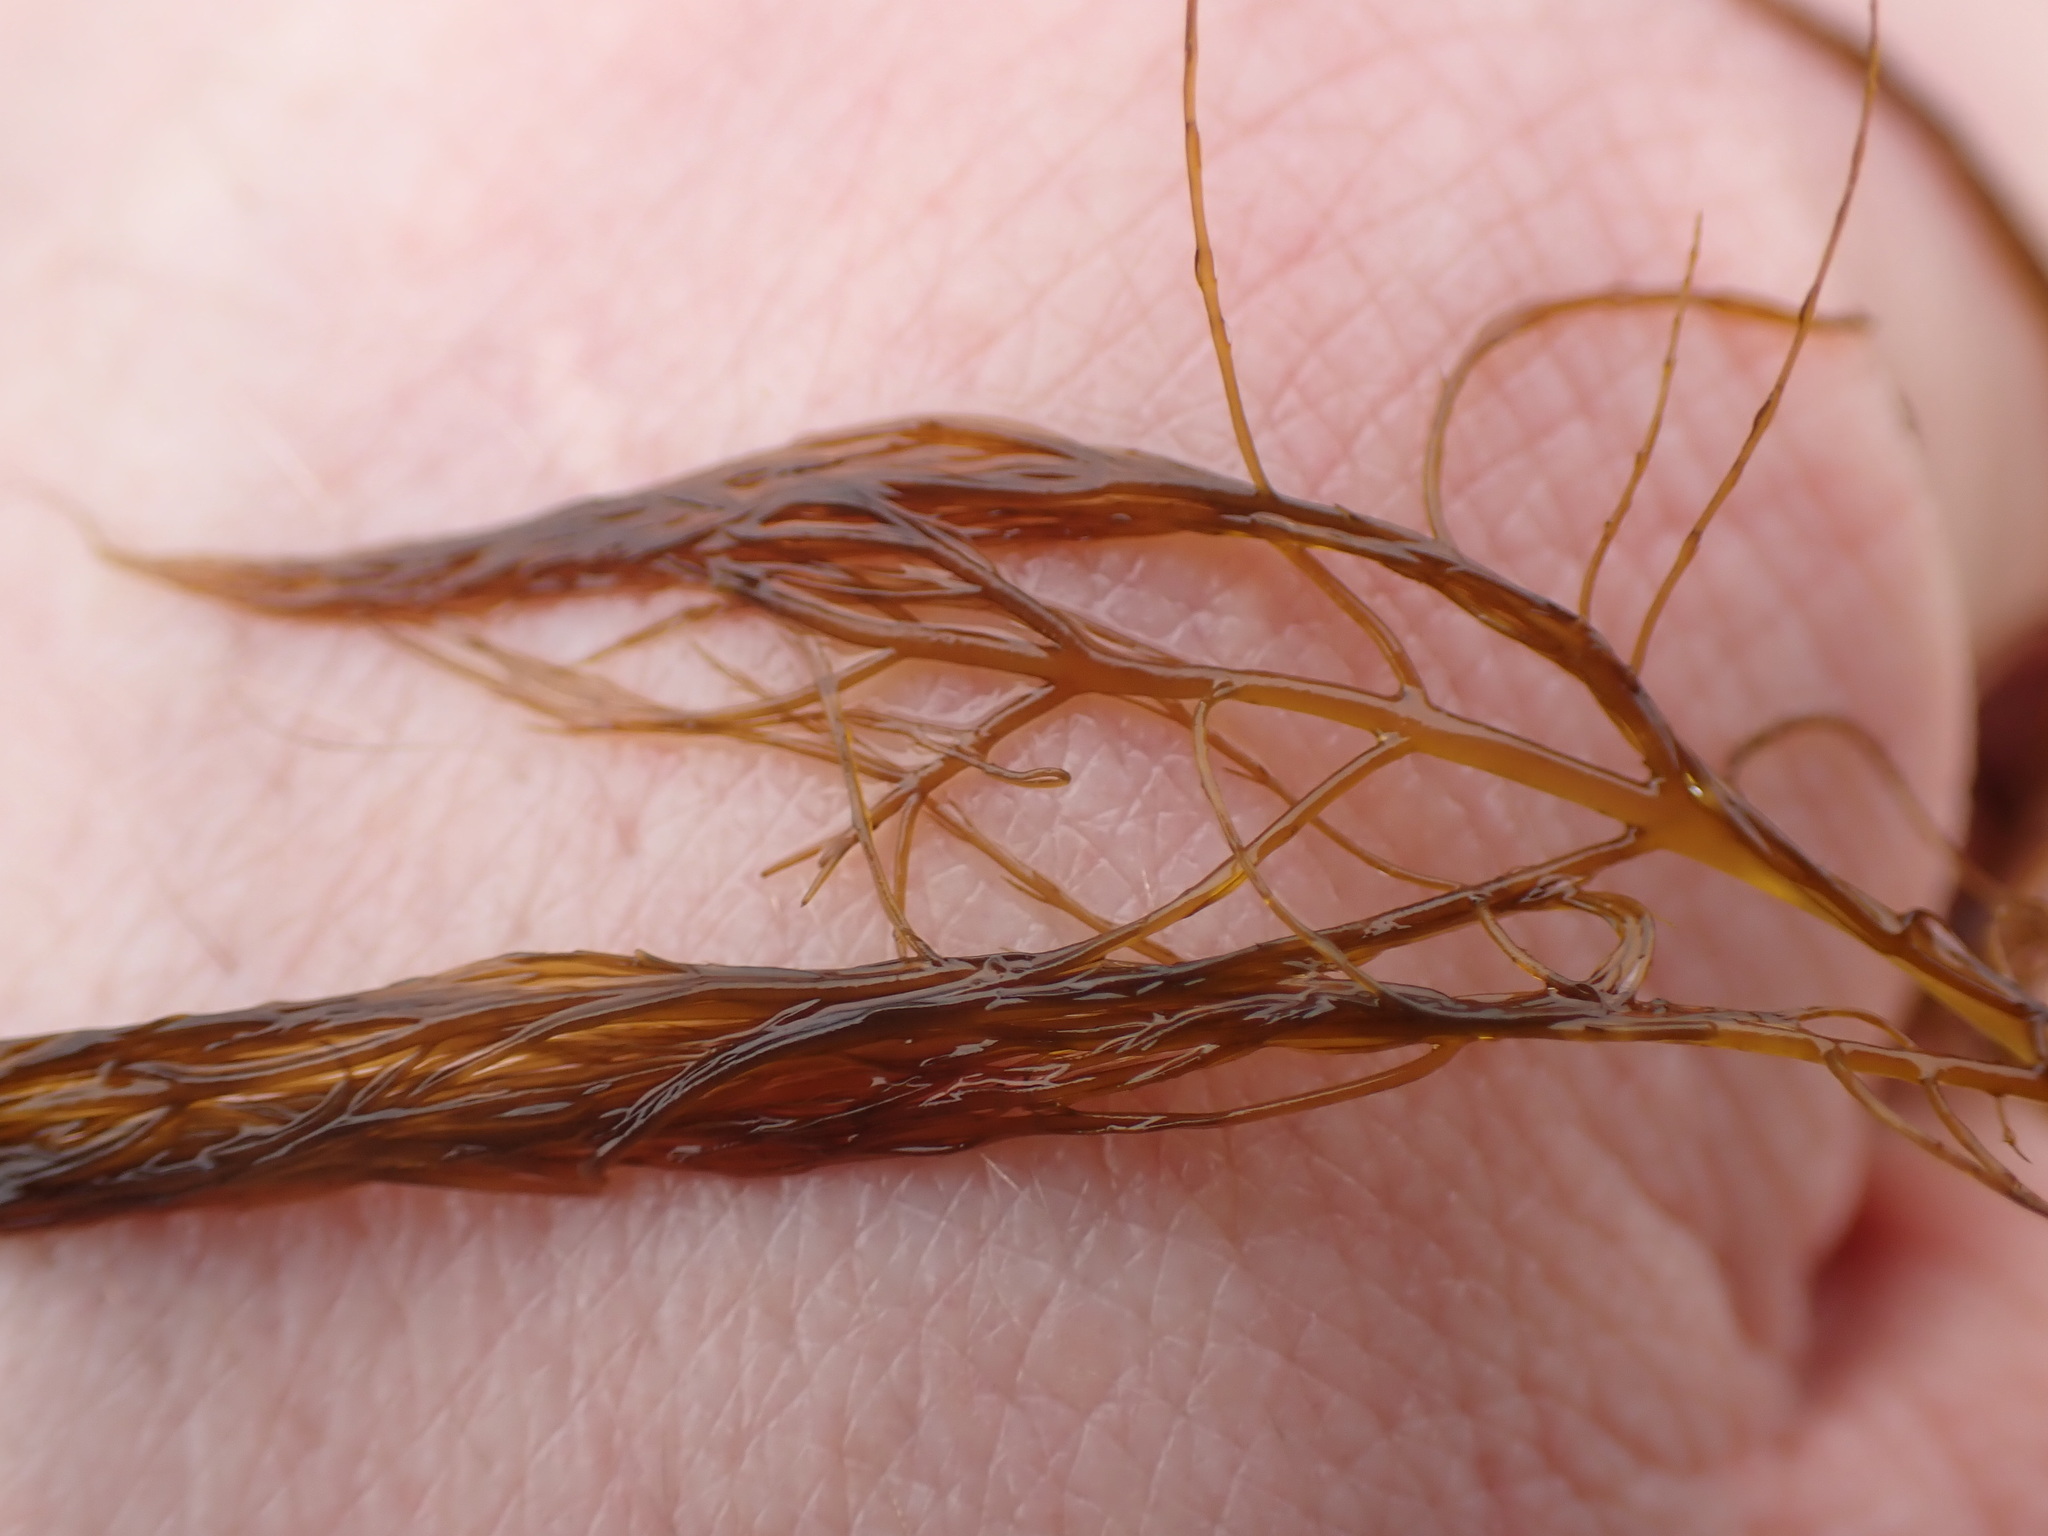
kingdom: Chromista
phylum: Ochrophyta
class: Phaeophyceae
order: Desmarestiales
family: Desmarestiaceae
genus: Desmarestia
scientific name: Desmarestia viridis
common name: Stringy acid kelp
